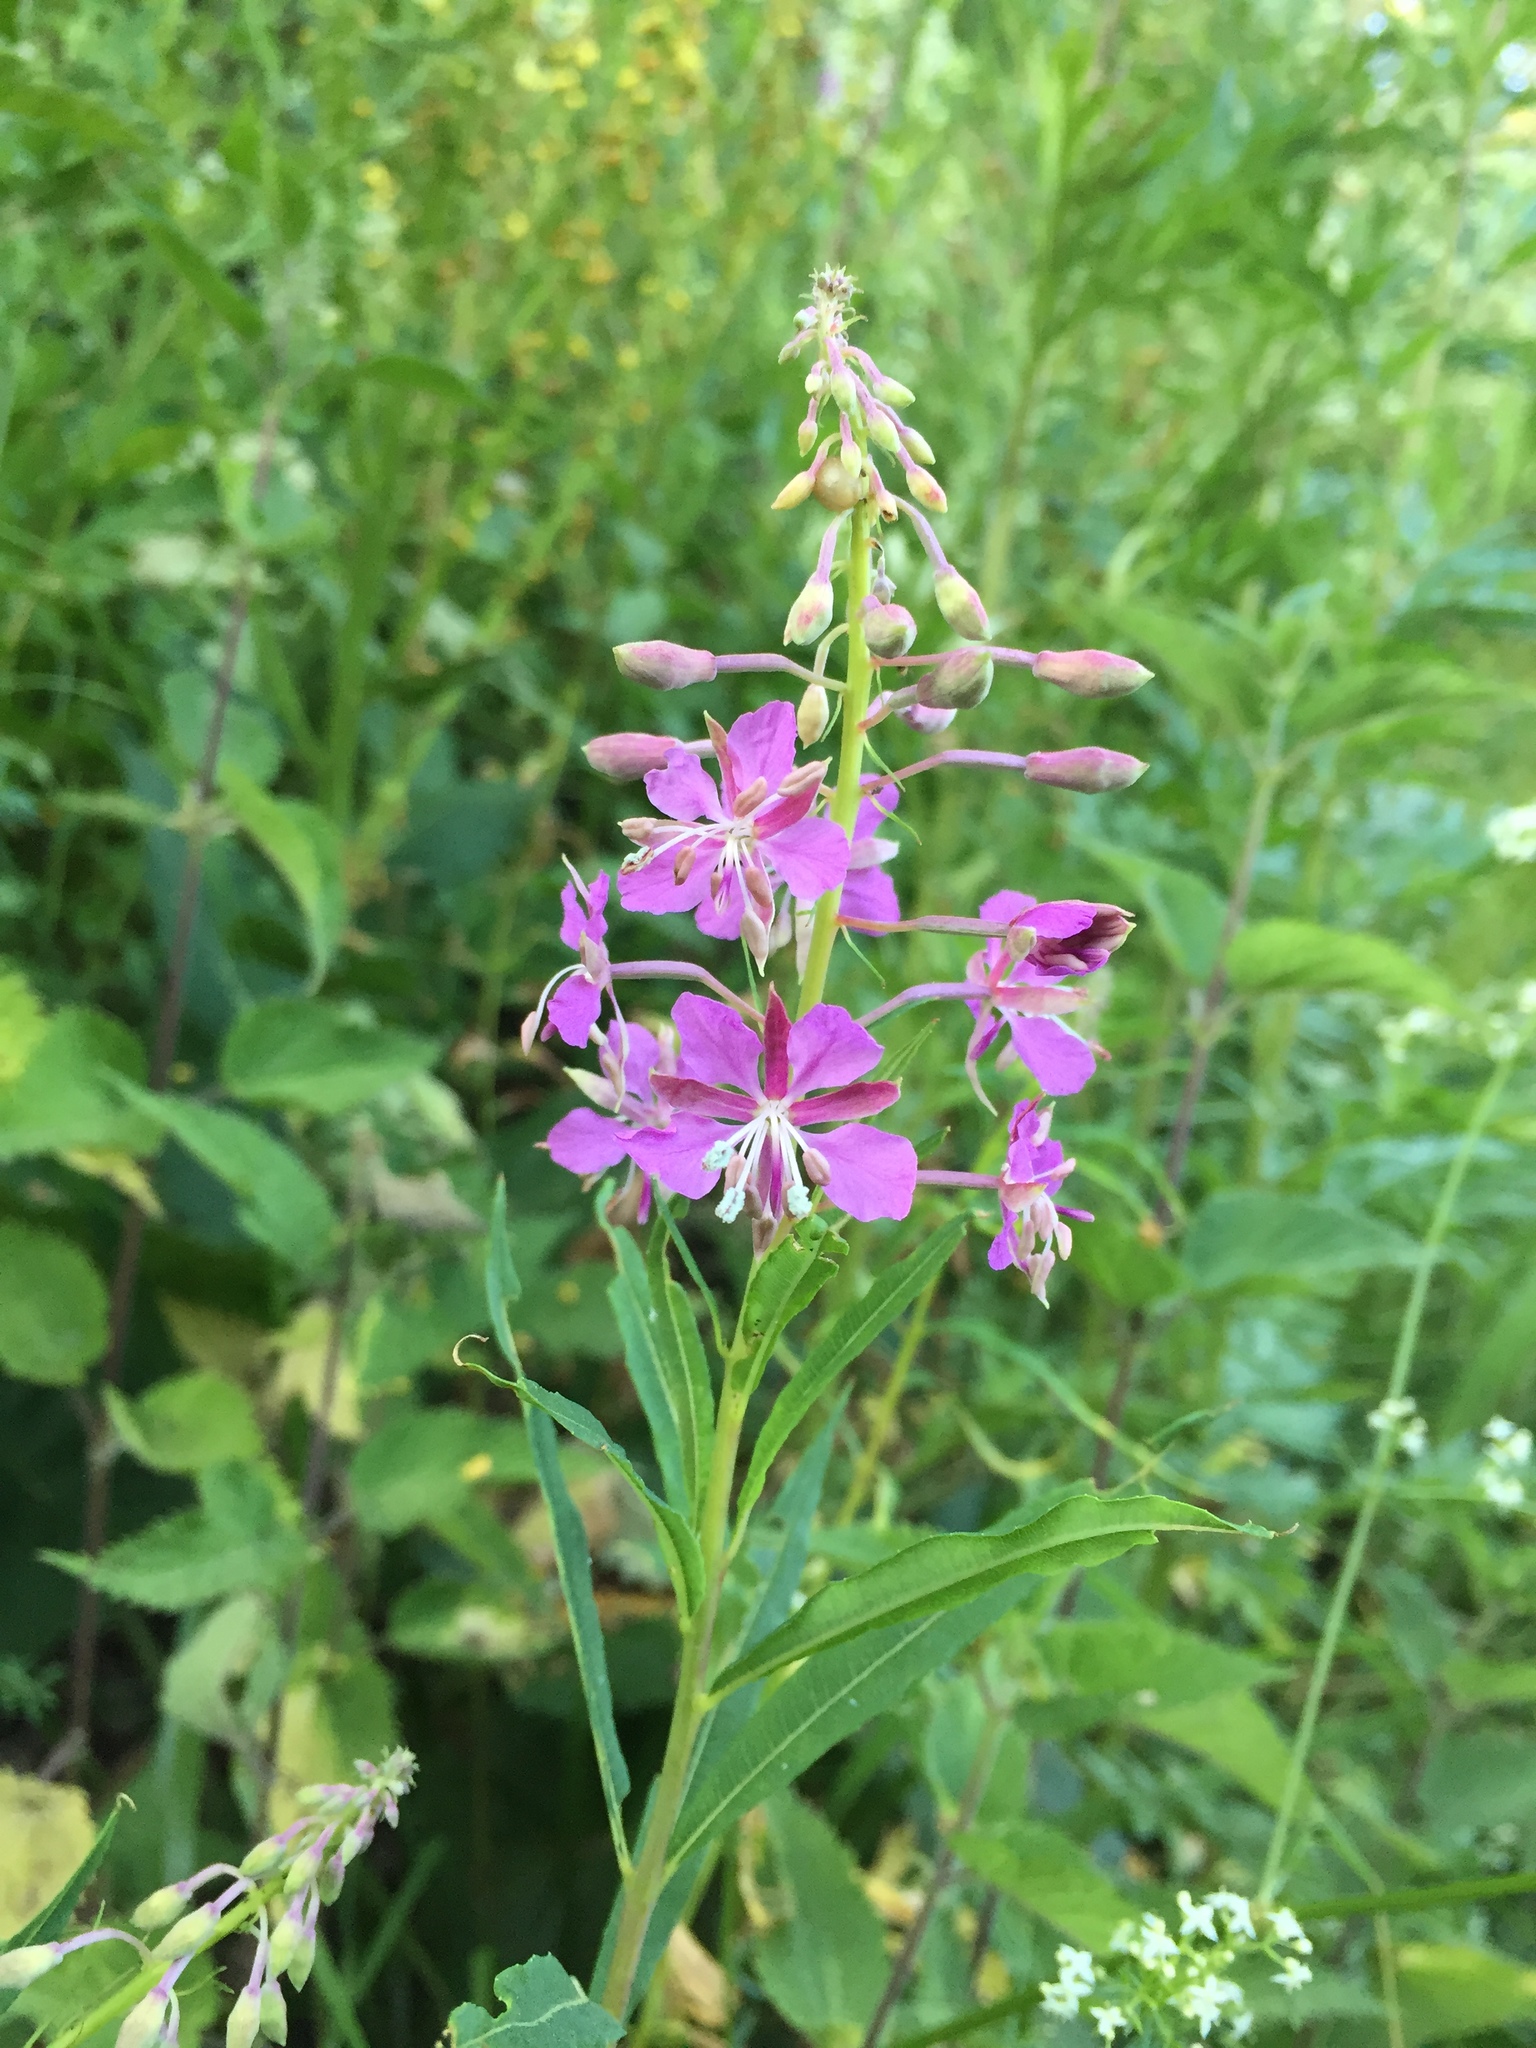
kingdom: Plantae
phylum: Tracheophyta
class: Magnoliopsida
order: Myrtales
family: Onagraceae
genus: Chamaenerion
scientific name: Chamaenerion angustifolium
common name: Fireweed
